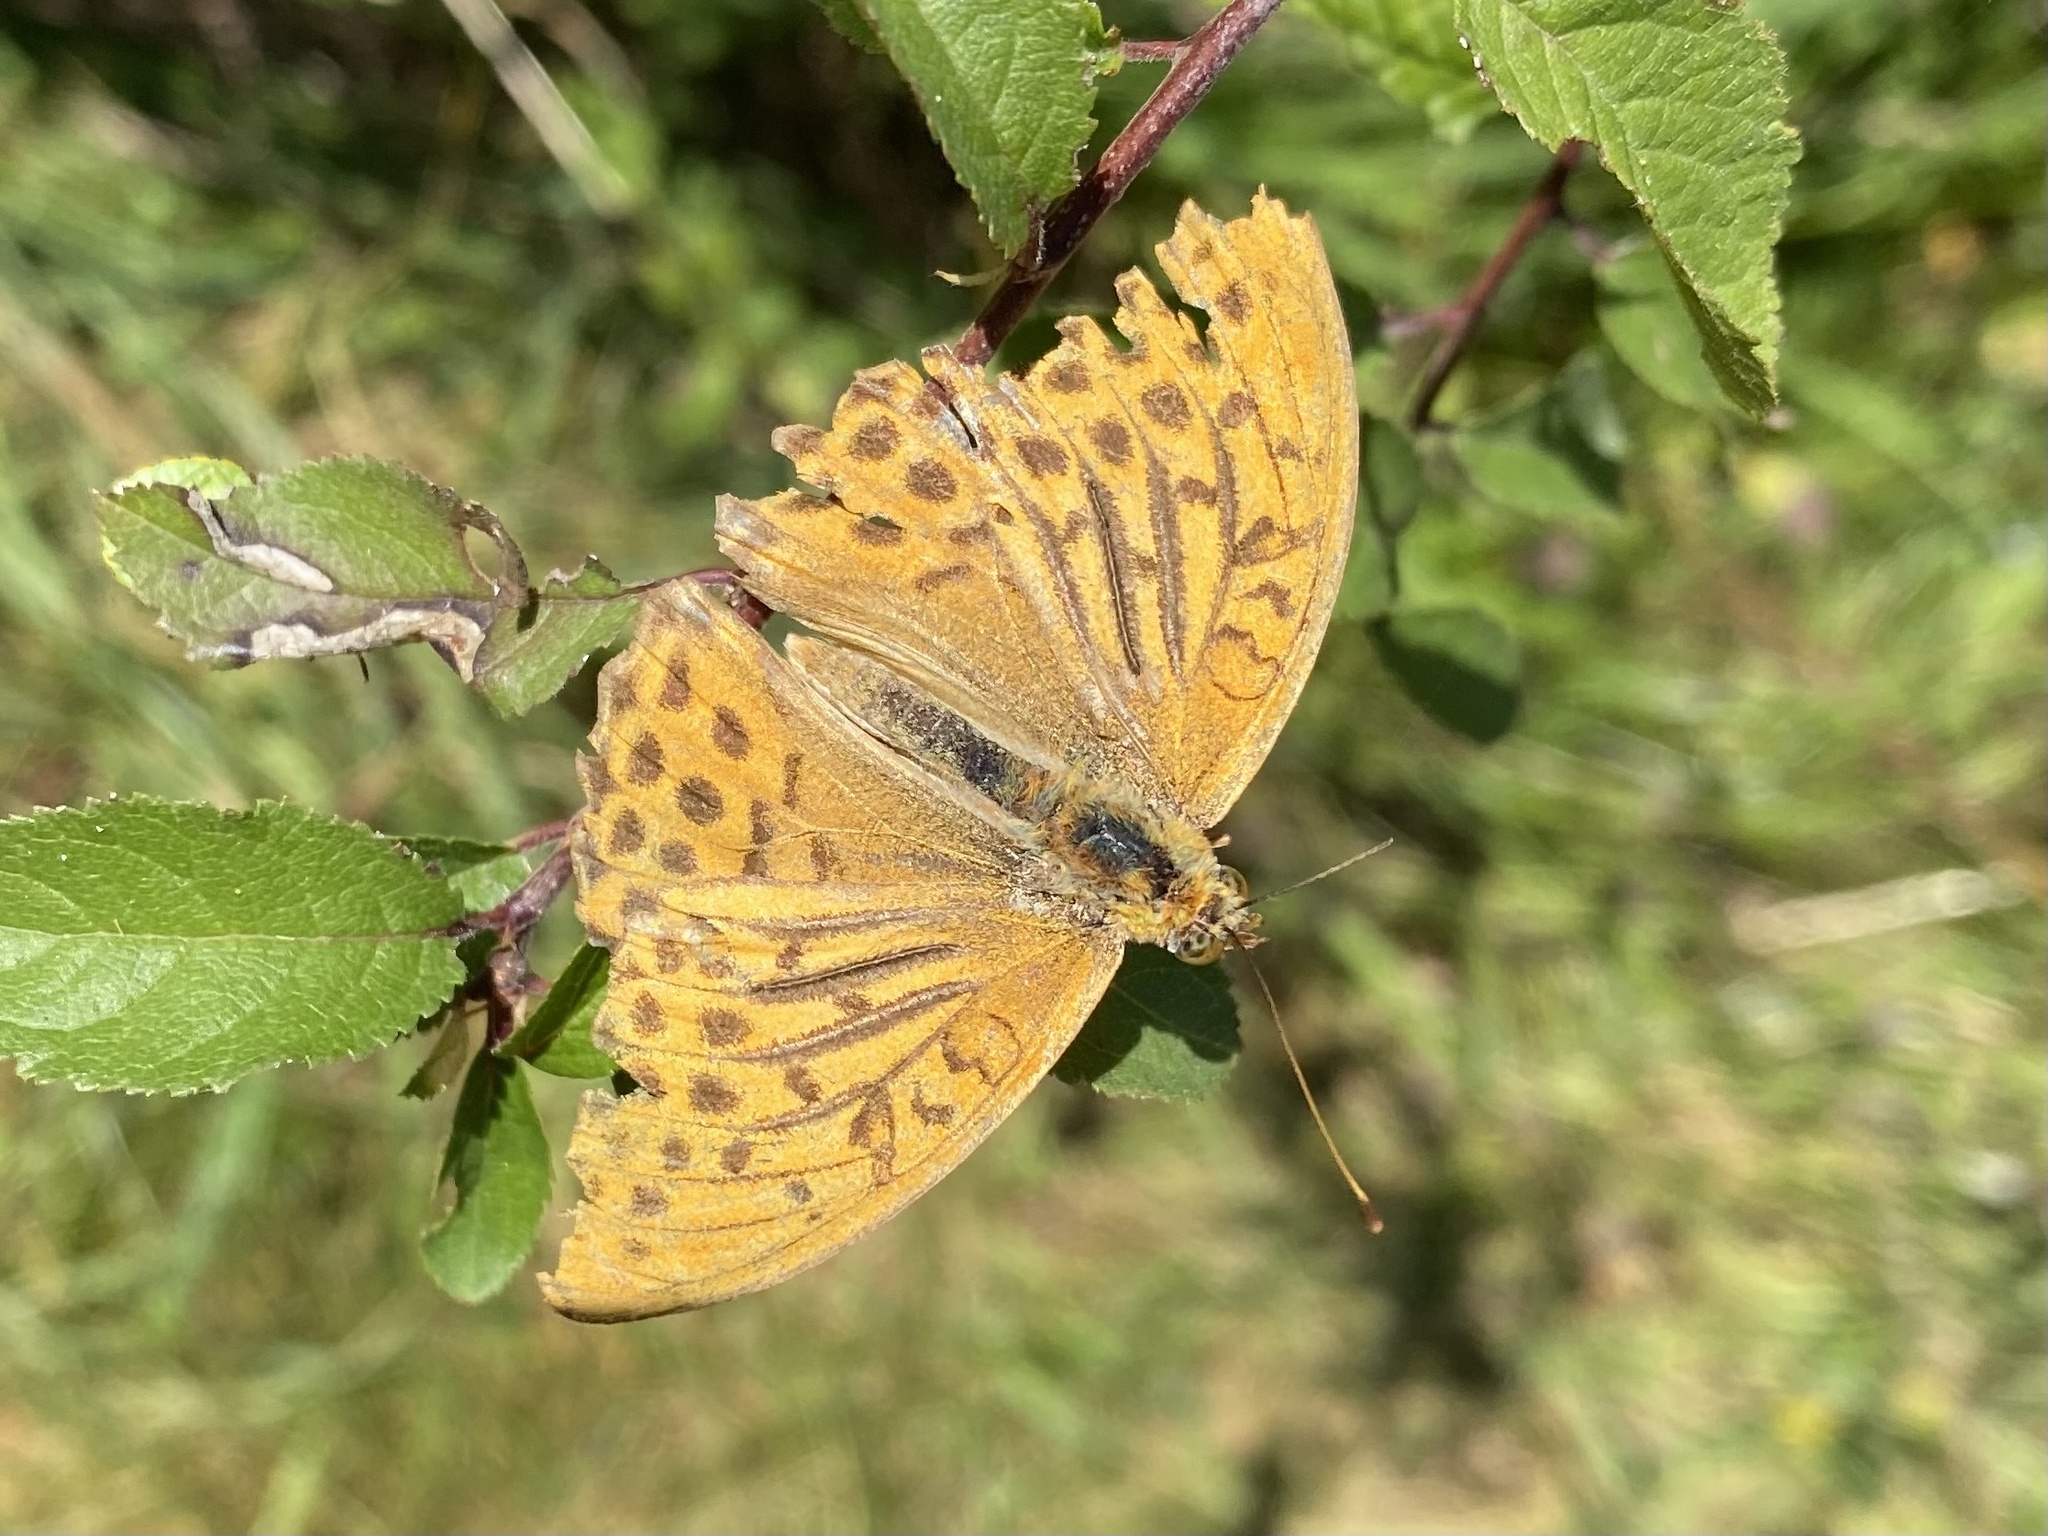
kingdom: Animalia
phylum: Arthropoda
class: Insecta
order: Lepidoptera
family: Nymphalidae
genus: Argynnis
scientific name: Argynnis paphia
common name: Silver-washed fritillary
